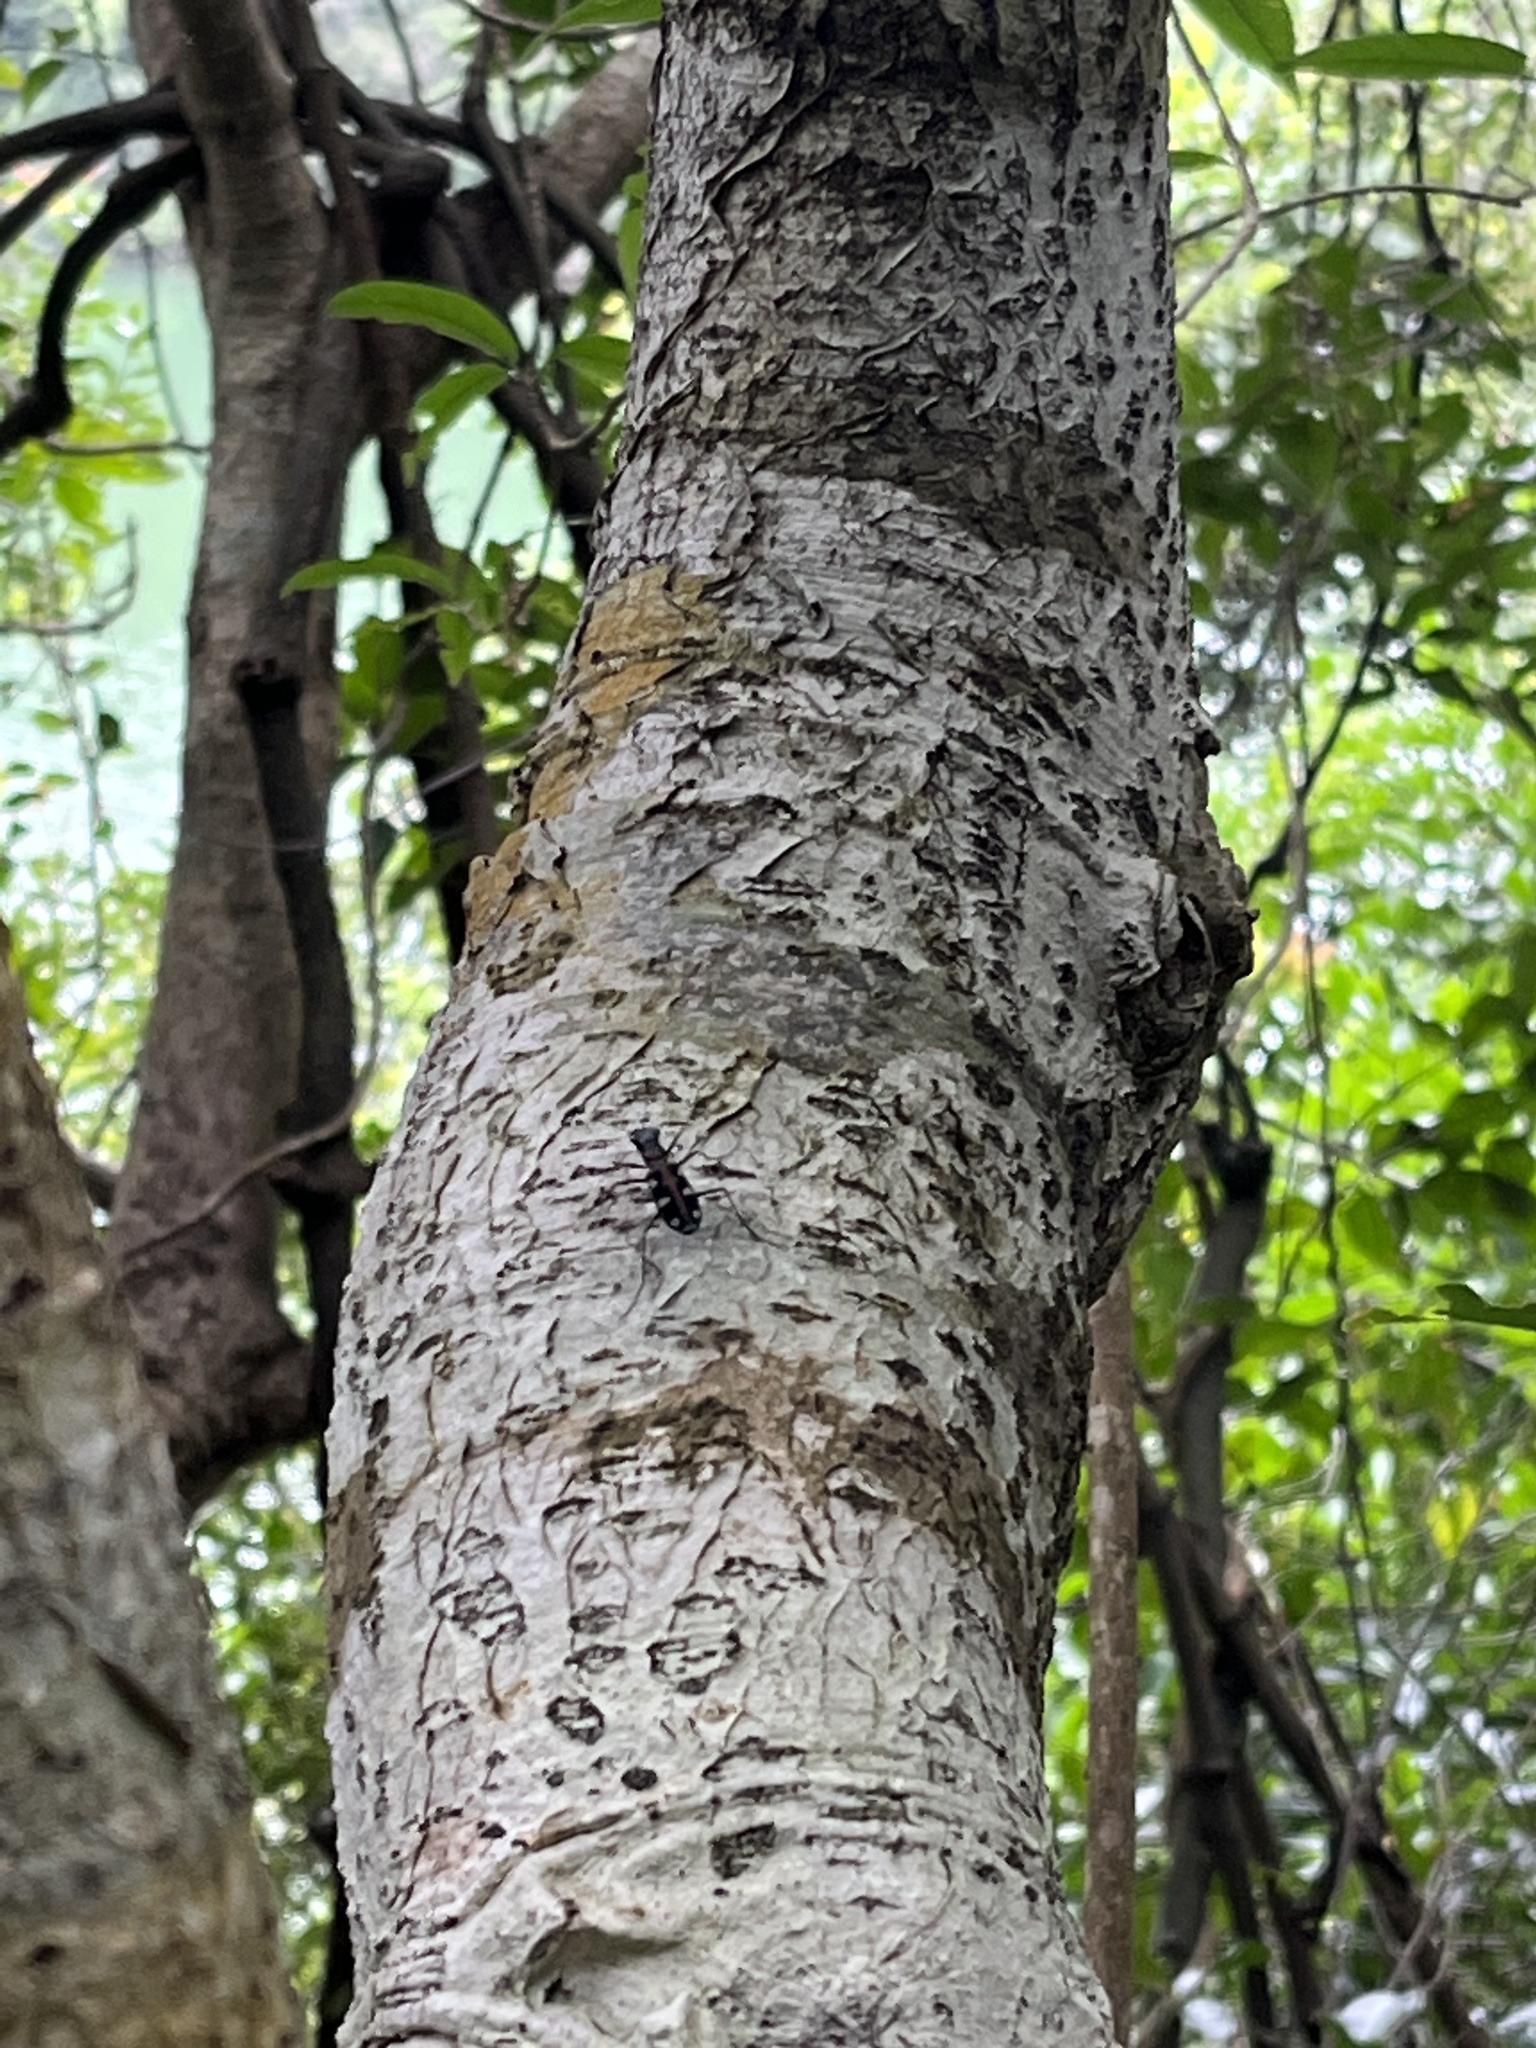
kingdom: Animalia
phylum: Arthropoda
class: Insecta
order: Coleoptera
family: Carabidae
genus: Cicindela
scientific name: Cicindela aurulenta
